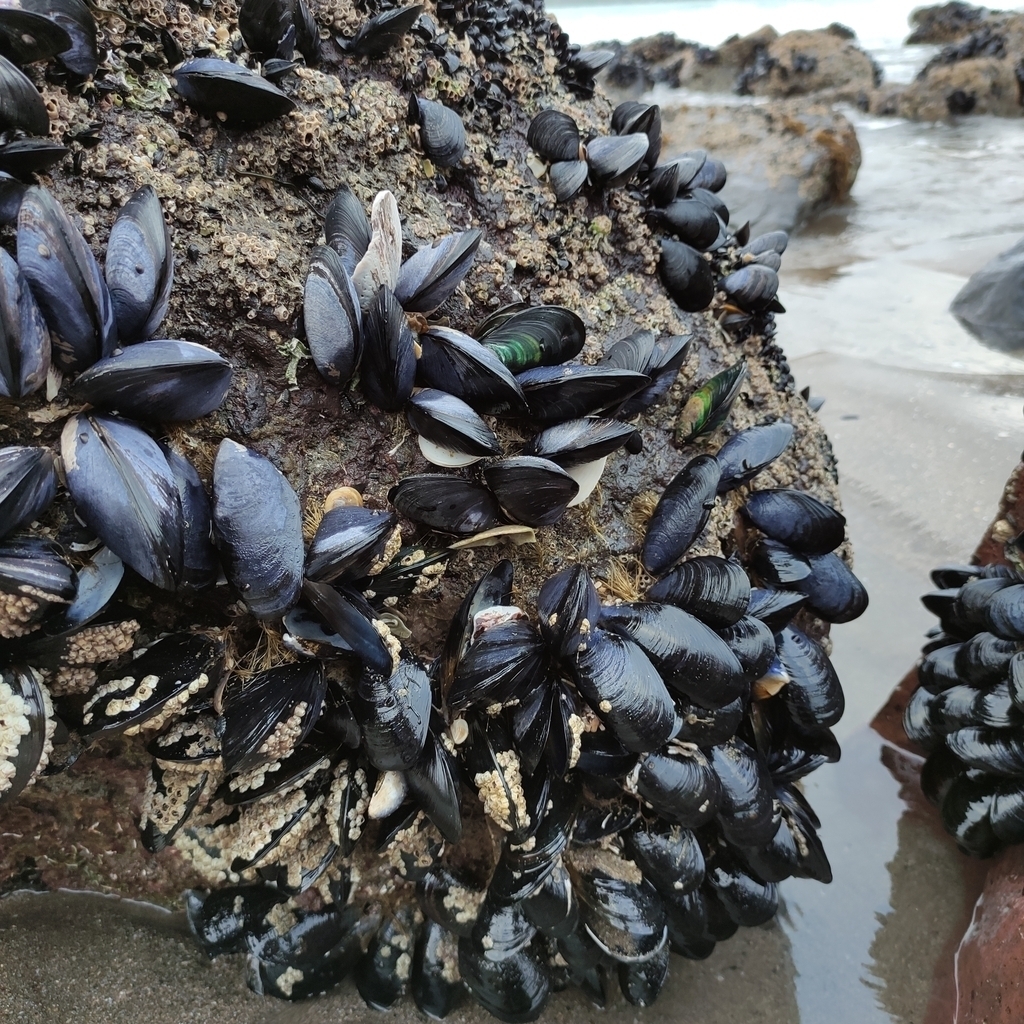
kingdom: Animalia
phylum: Mollusca
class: Bivalvia
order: Mytilida
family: Mytilidae
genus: Perna
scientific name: Perna canaliculus
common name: New zealand greenshelltm
